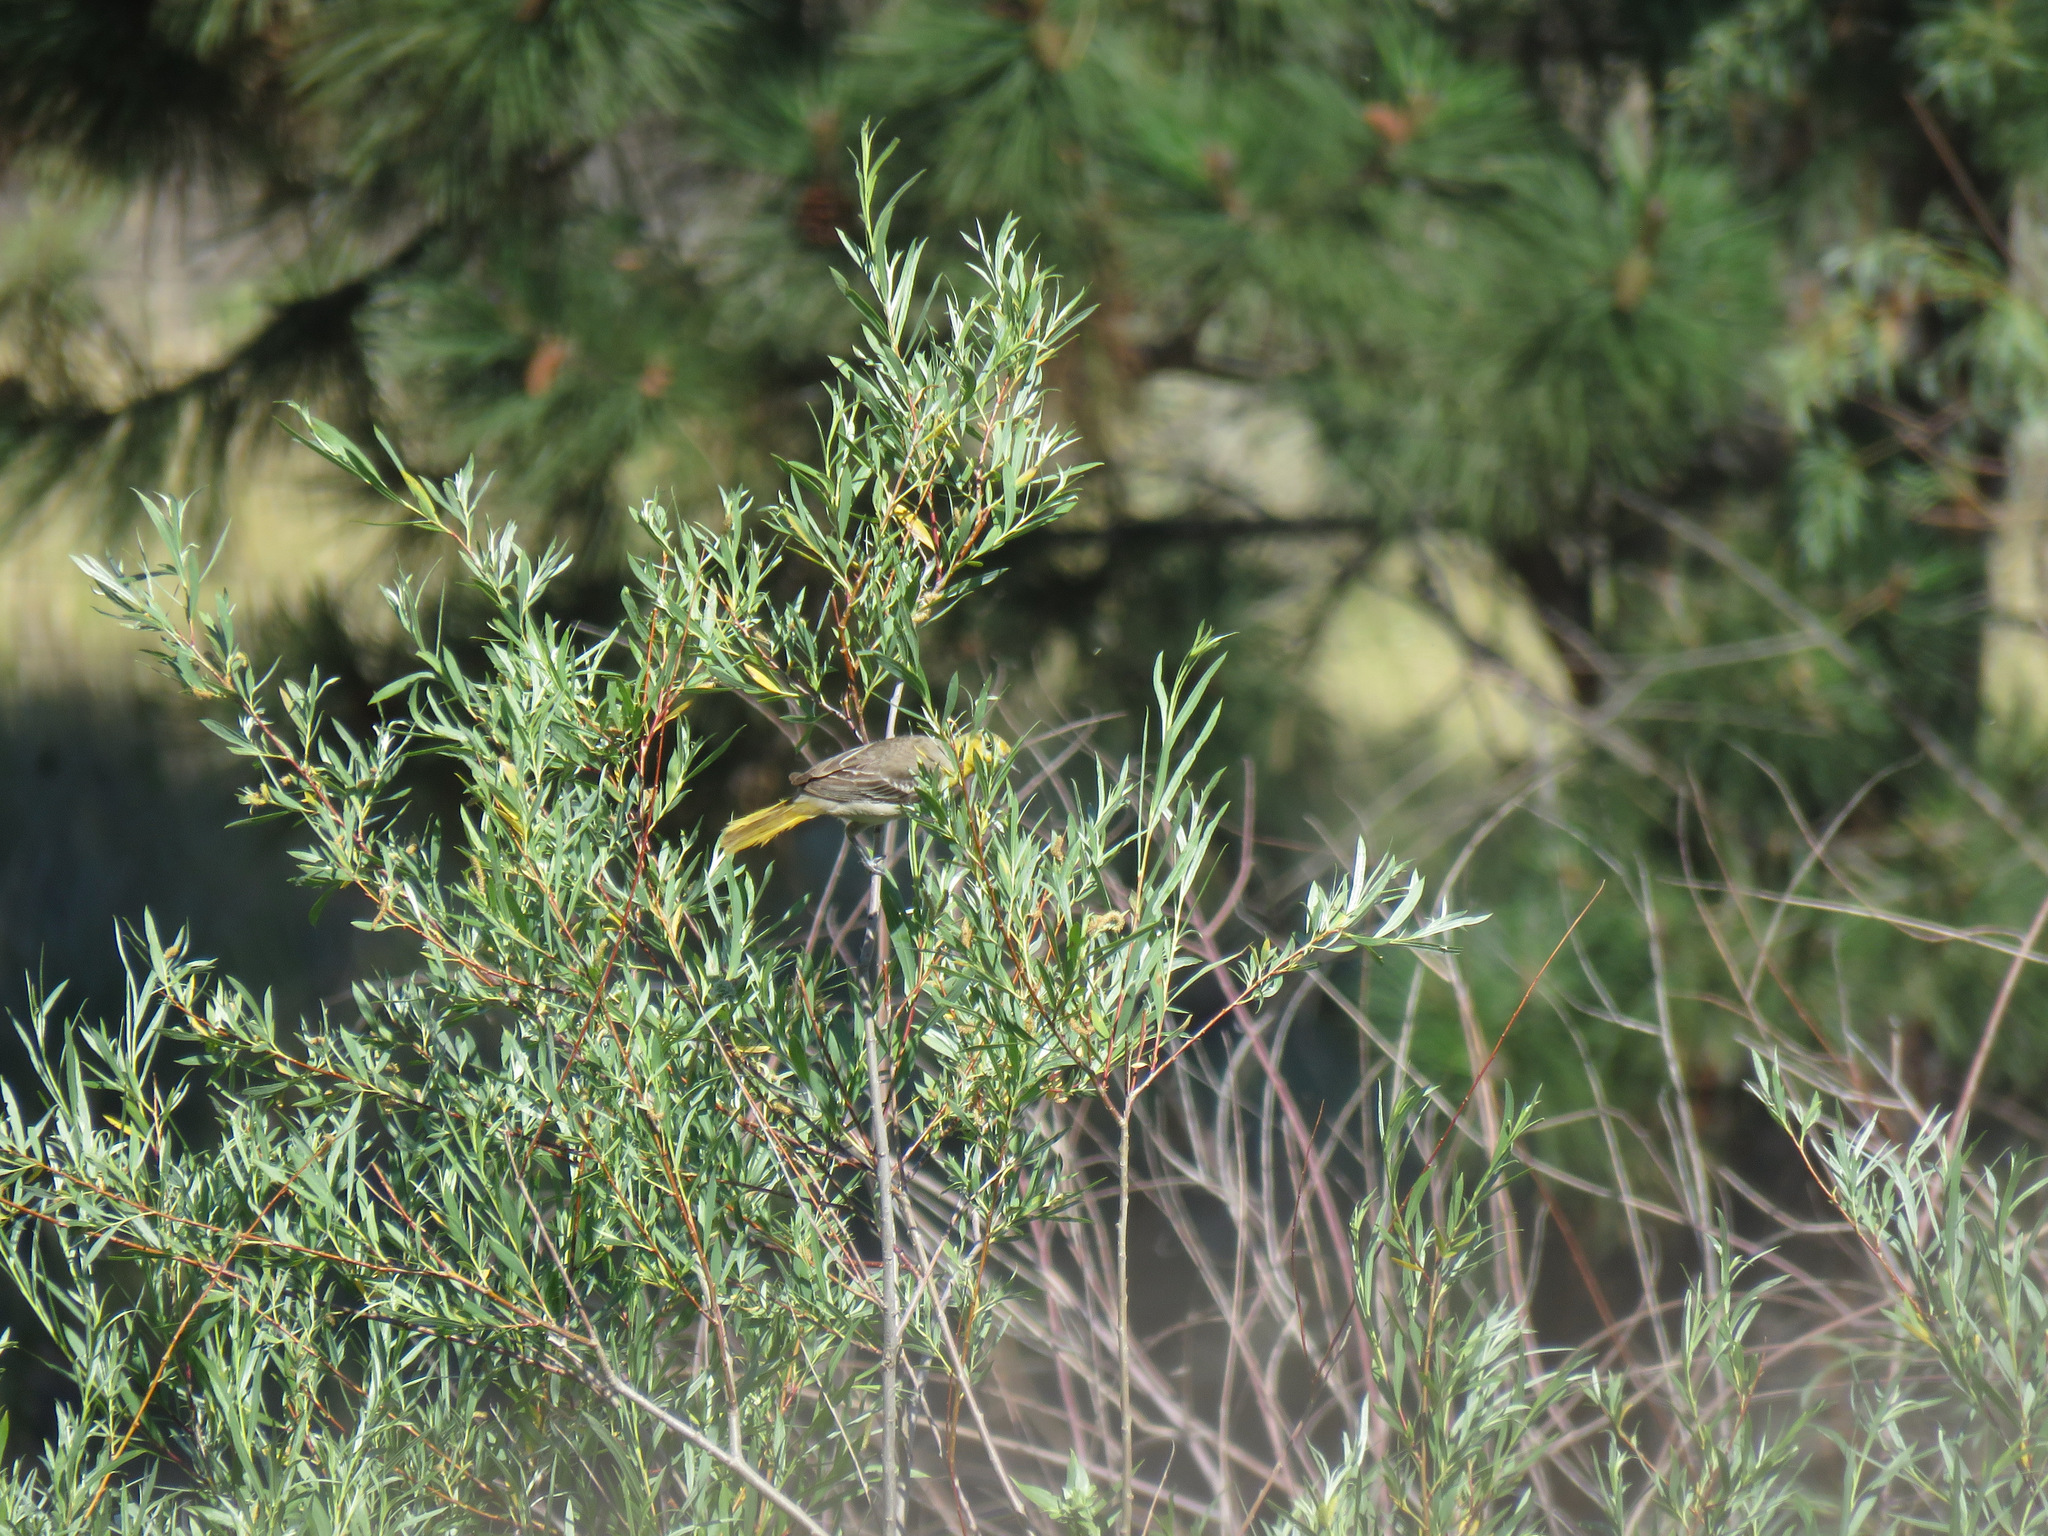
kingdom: Animalia
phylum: Chordata
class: Aves
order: Passeriformes
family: Icteridae
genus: Icterus
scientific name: Icterus bullockii
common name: Bullock's oriole
